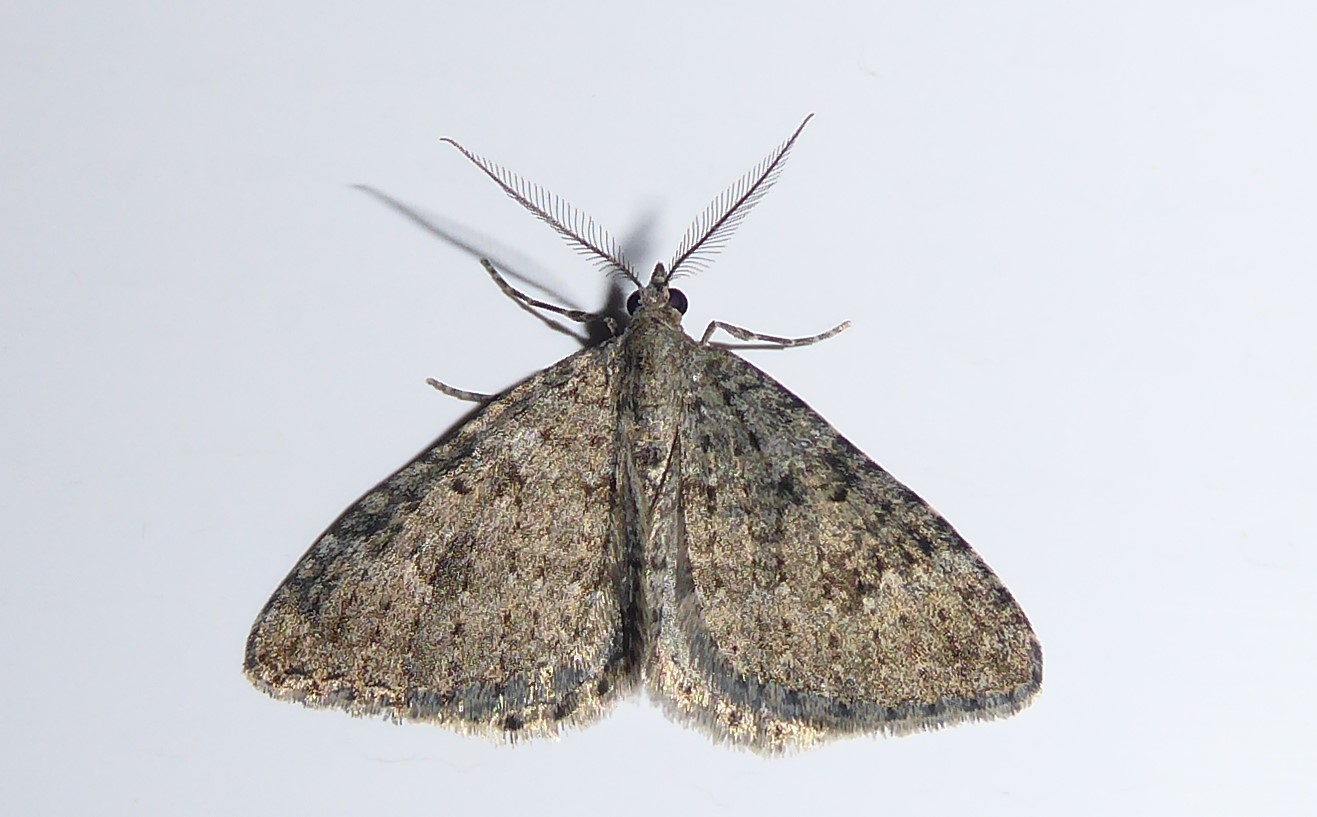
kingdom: Animalia
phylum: Arthropoda
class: Insecta
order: Lepidoptera
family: Geometridae
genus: Helastia
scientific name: Helastia corcularia
